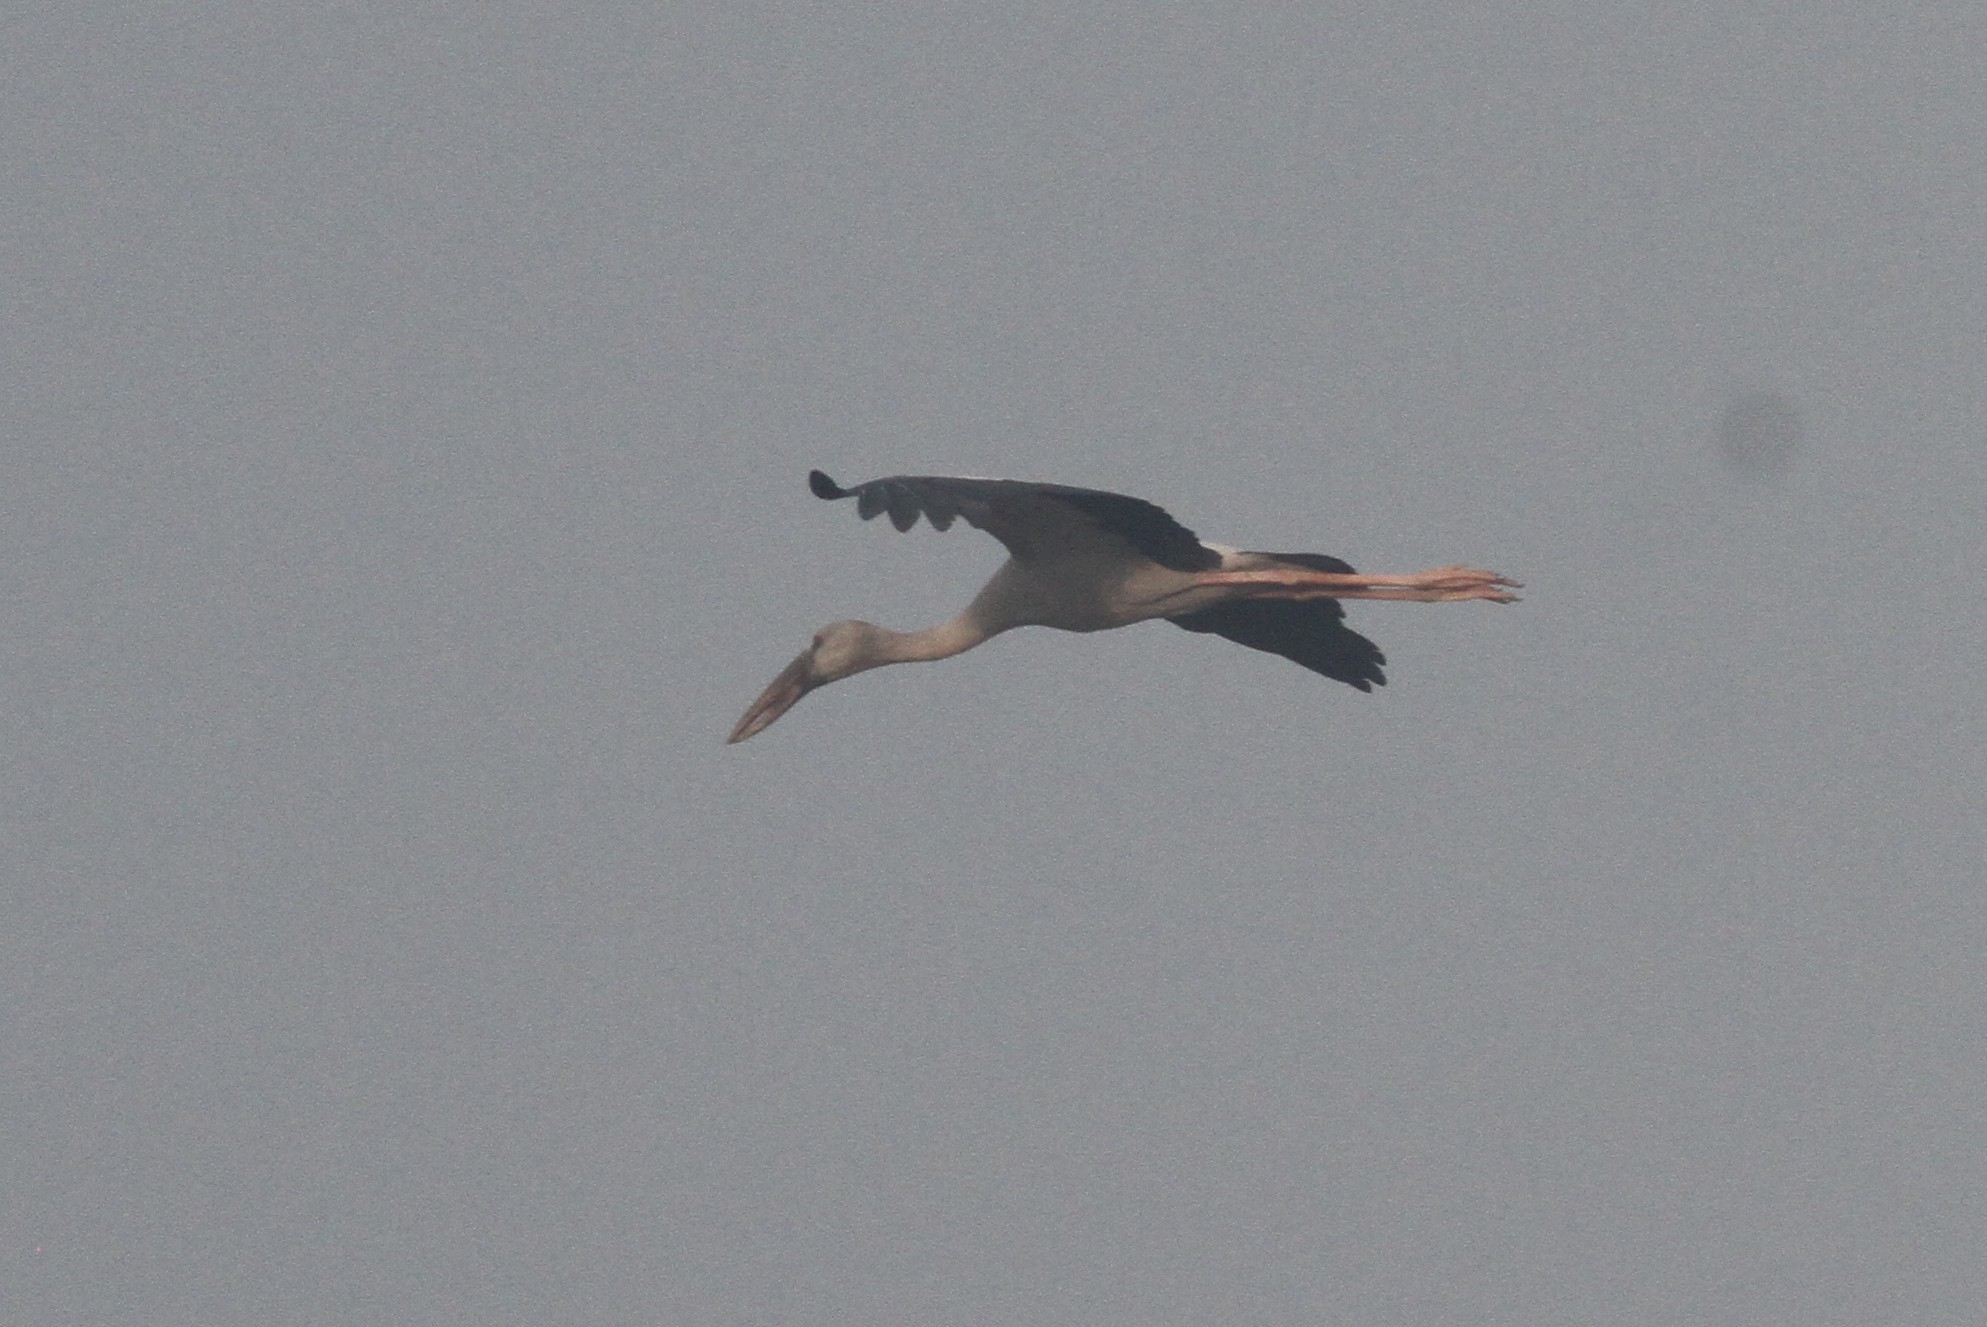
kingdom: Animalia
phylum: Chordata
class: Aves
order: Ciconiiformes
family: Ciconiidae
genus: Anastomus
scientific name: Anastomus oscitans
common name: Asian openbill
